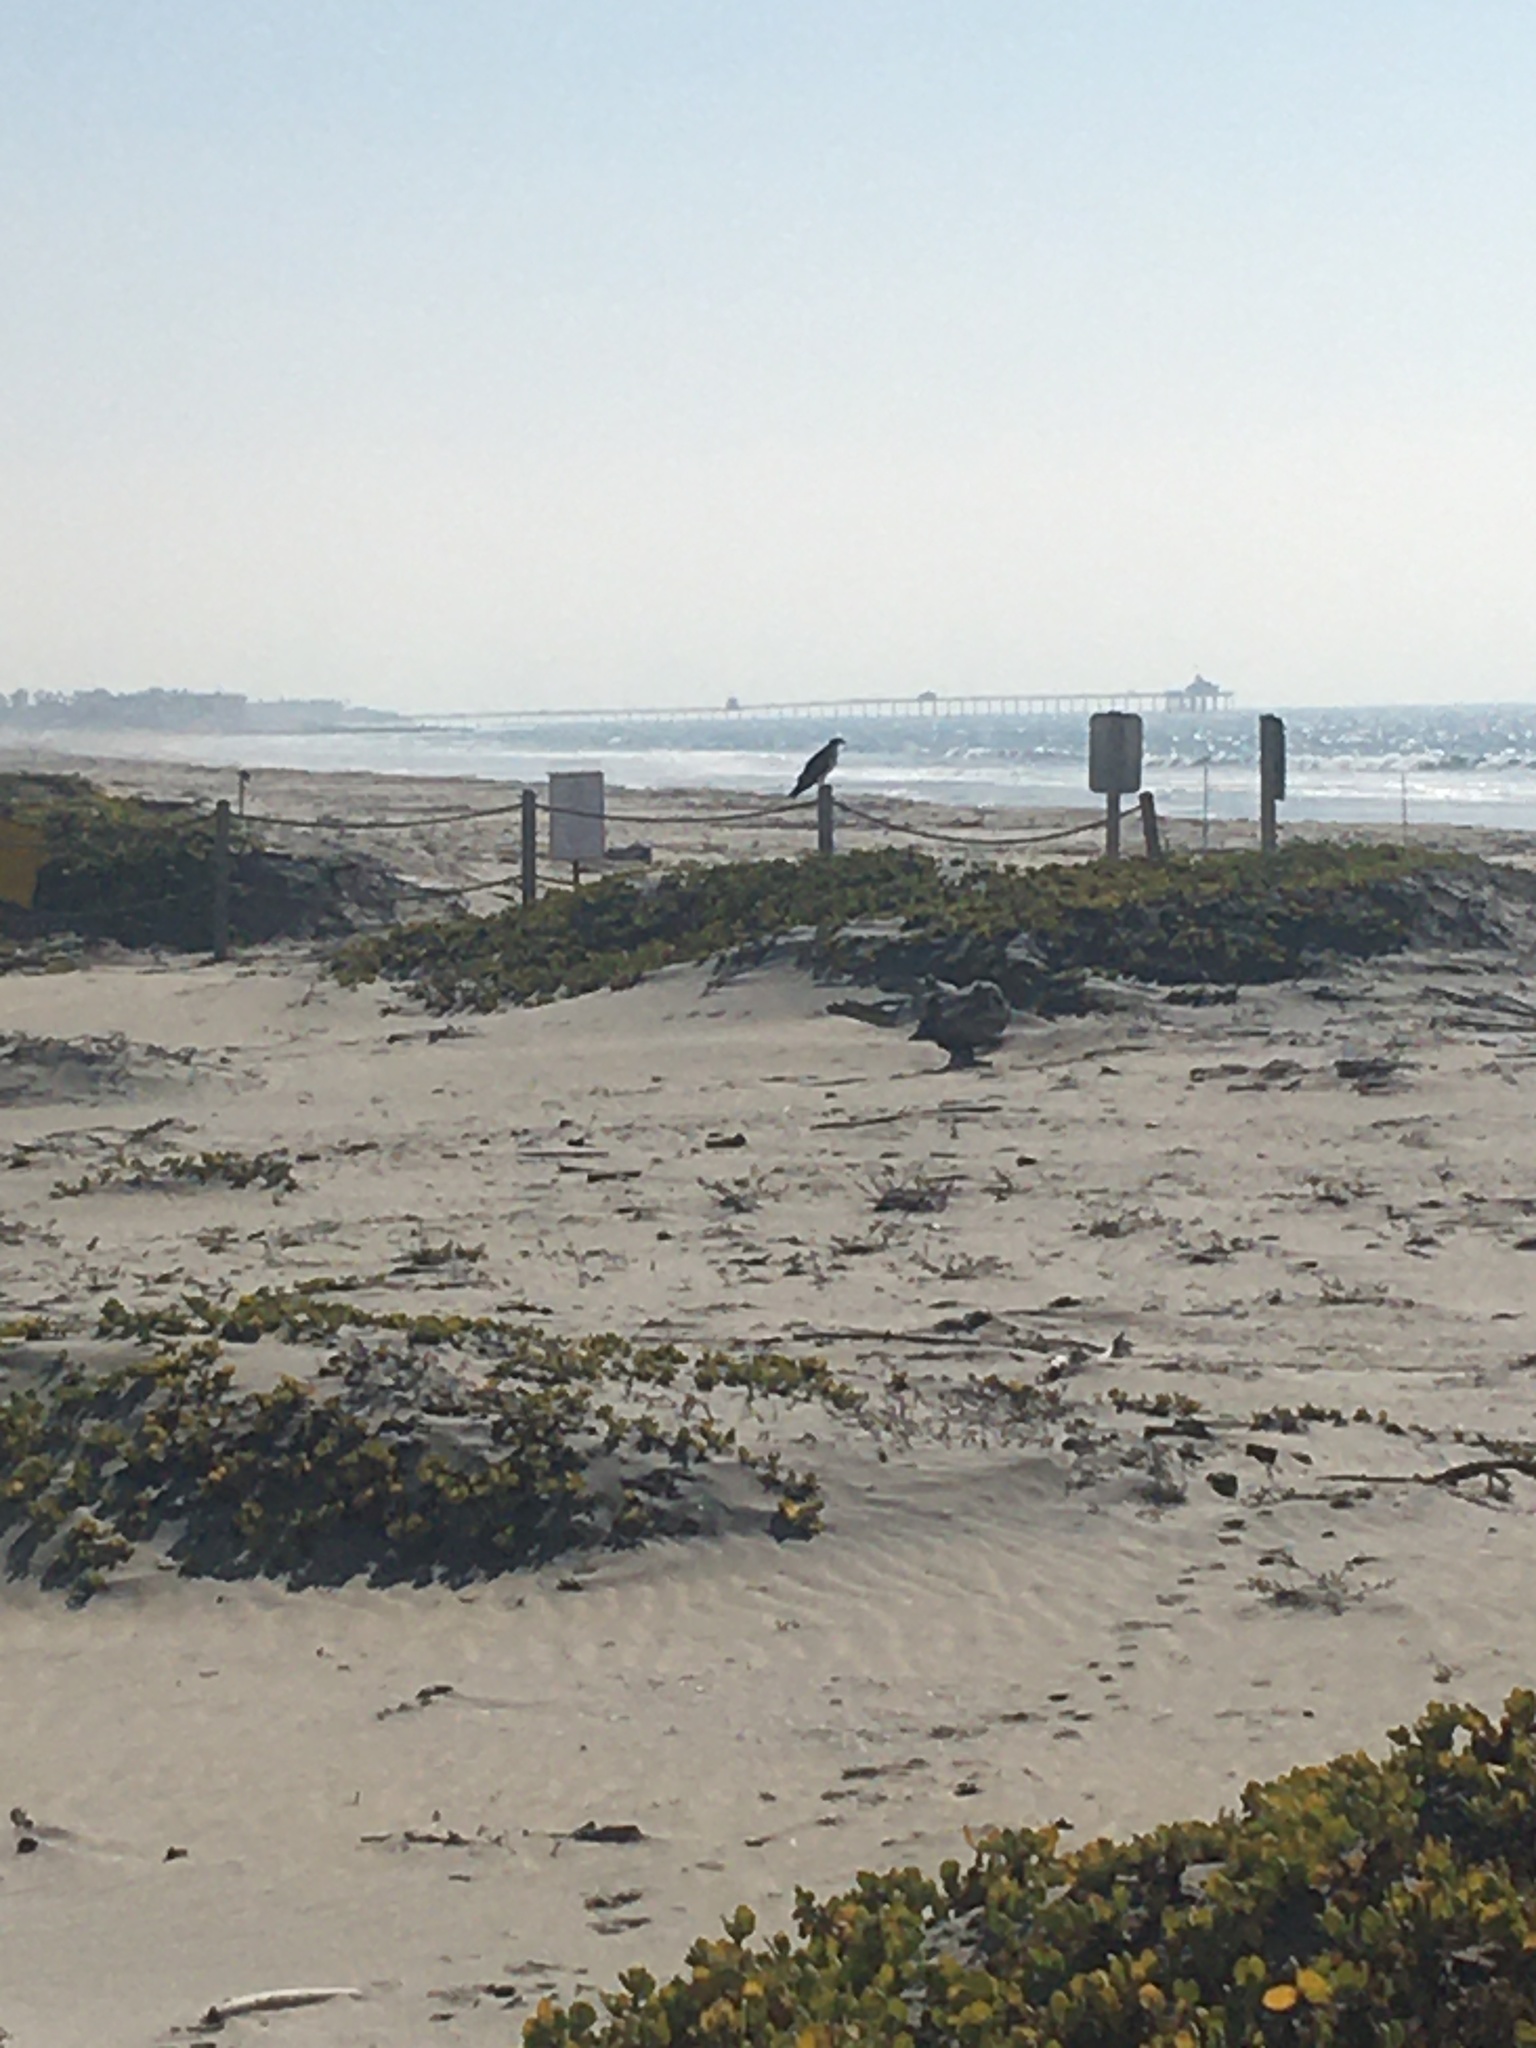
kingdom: Animalia
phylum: Chordata
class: Aves
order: Accipitriformes
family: Pandionidae
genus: Pandion
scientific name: Pandion haliaetus
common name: Osprey
